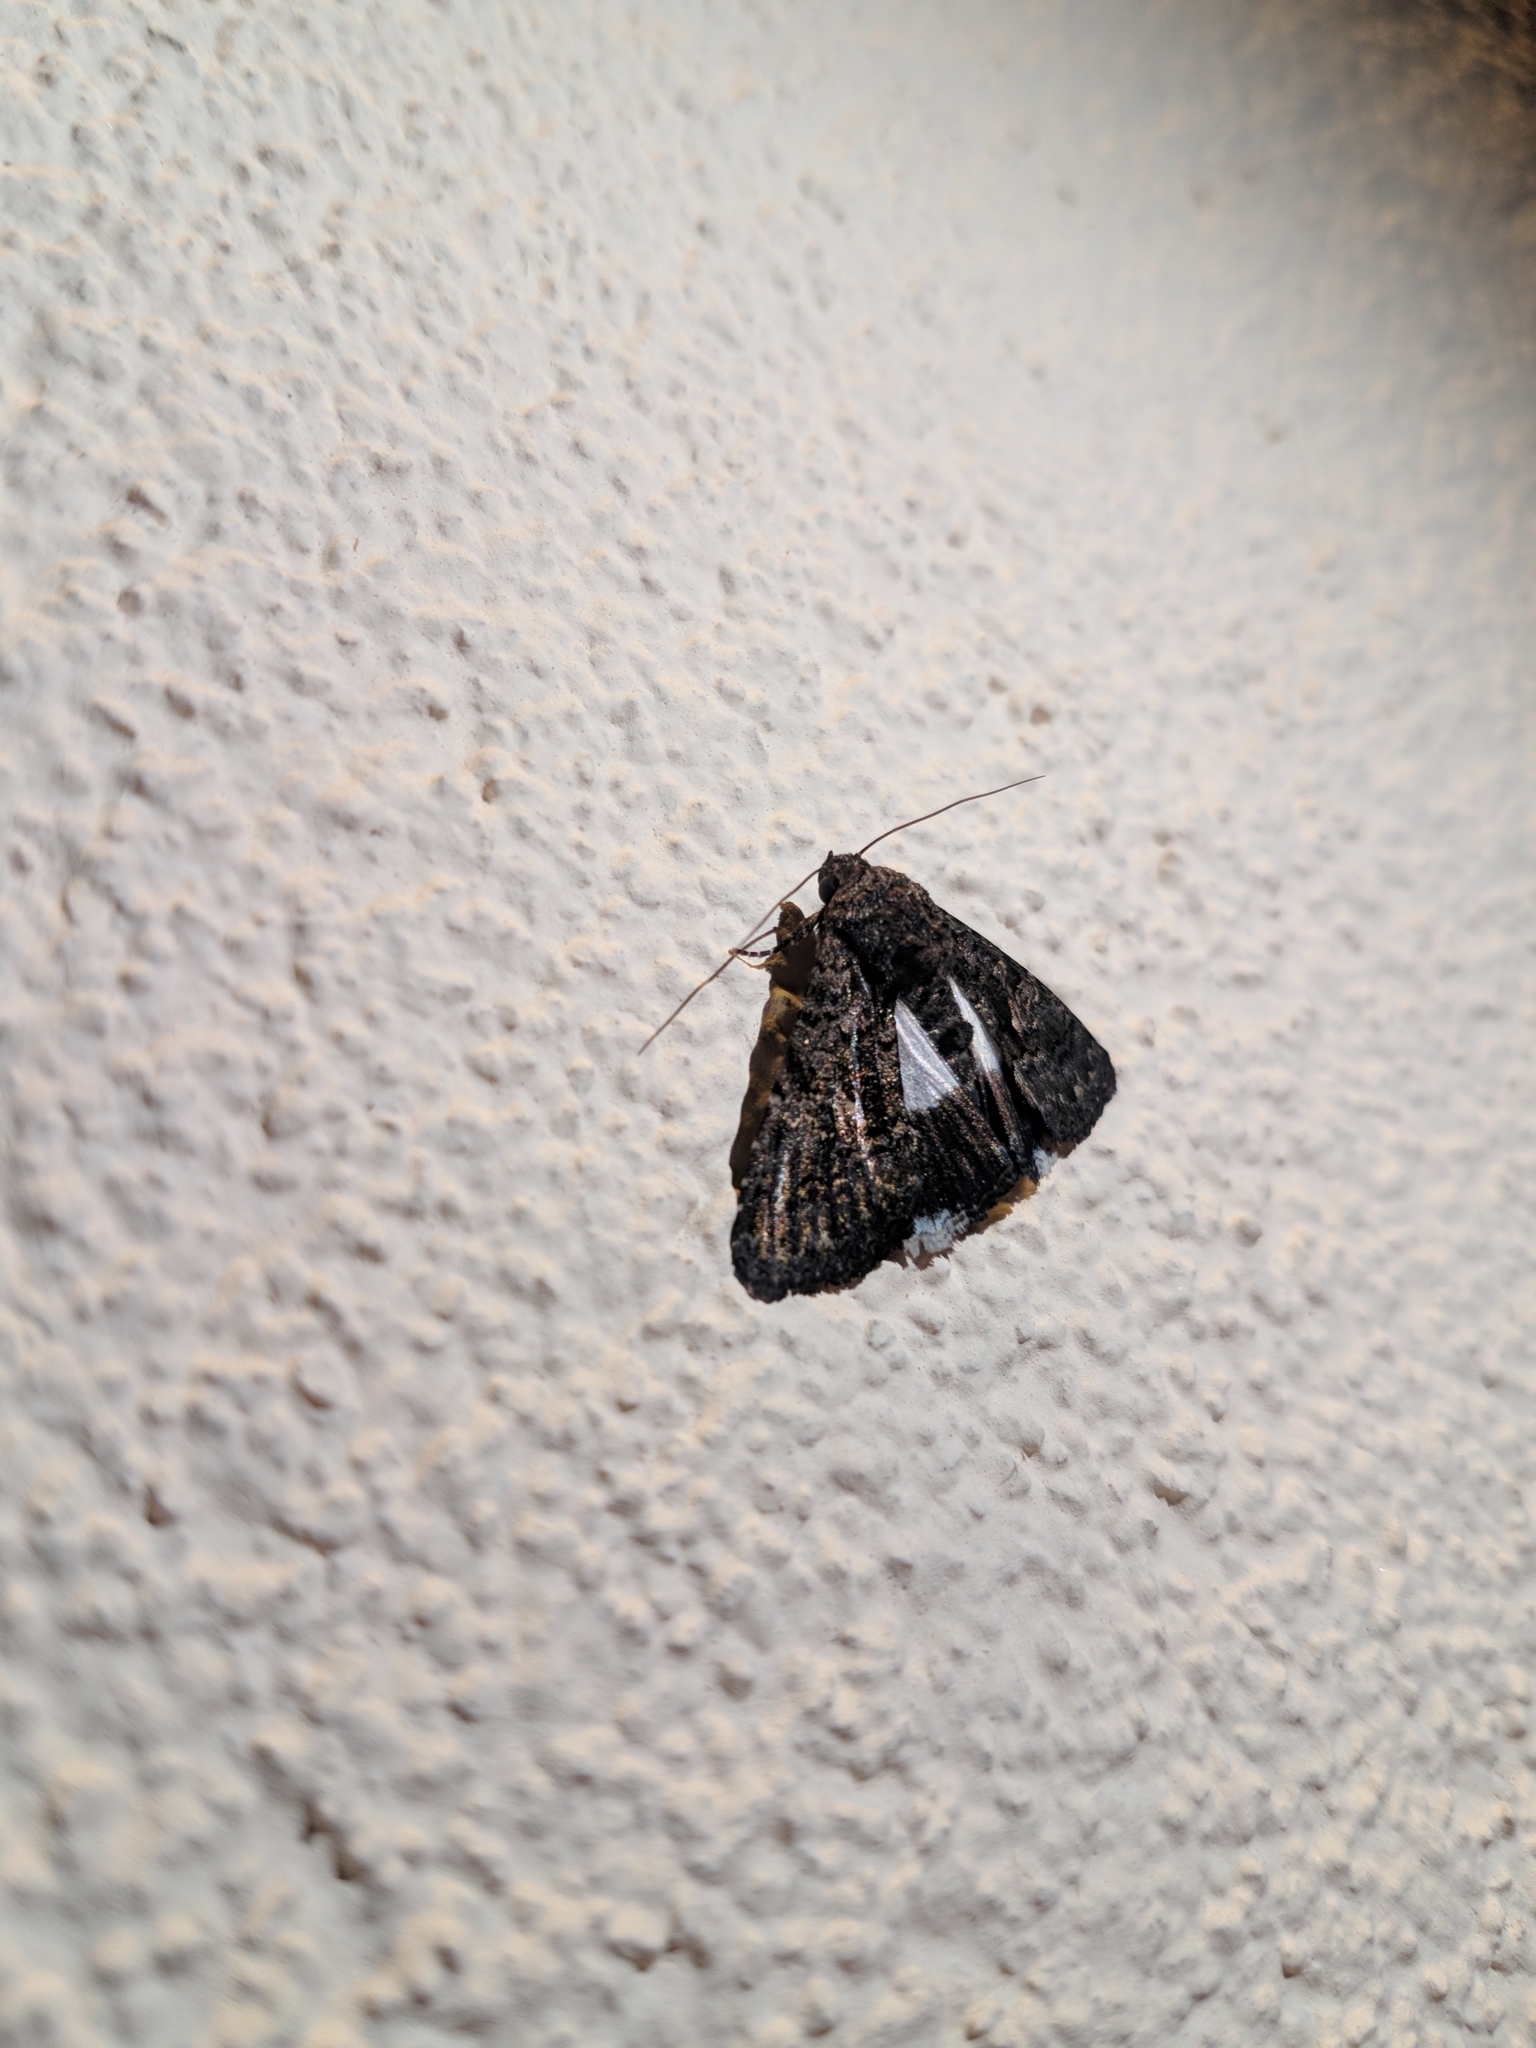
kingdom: Animalia
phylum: Arthropoda
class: Insecta
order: Lepidoptera
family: Noctuidae
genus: Aedia
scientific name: Aedia leucomelas
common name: Sorcerer
